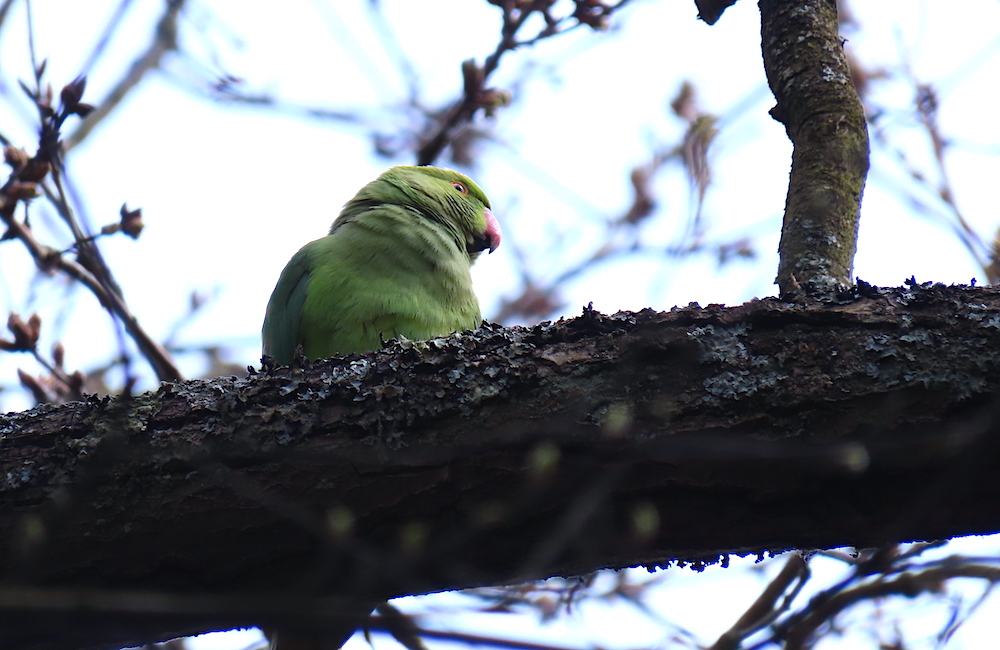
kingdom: Animalia
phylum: Chordata
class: Aves
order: Psittaciformes
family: Psittacidae
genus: Psittacula
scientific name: Psittacula krameri
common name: Rose-ringed parakeet
